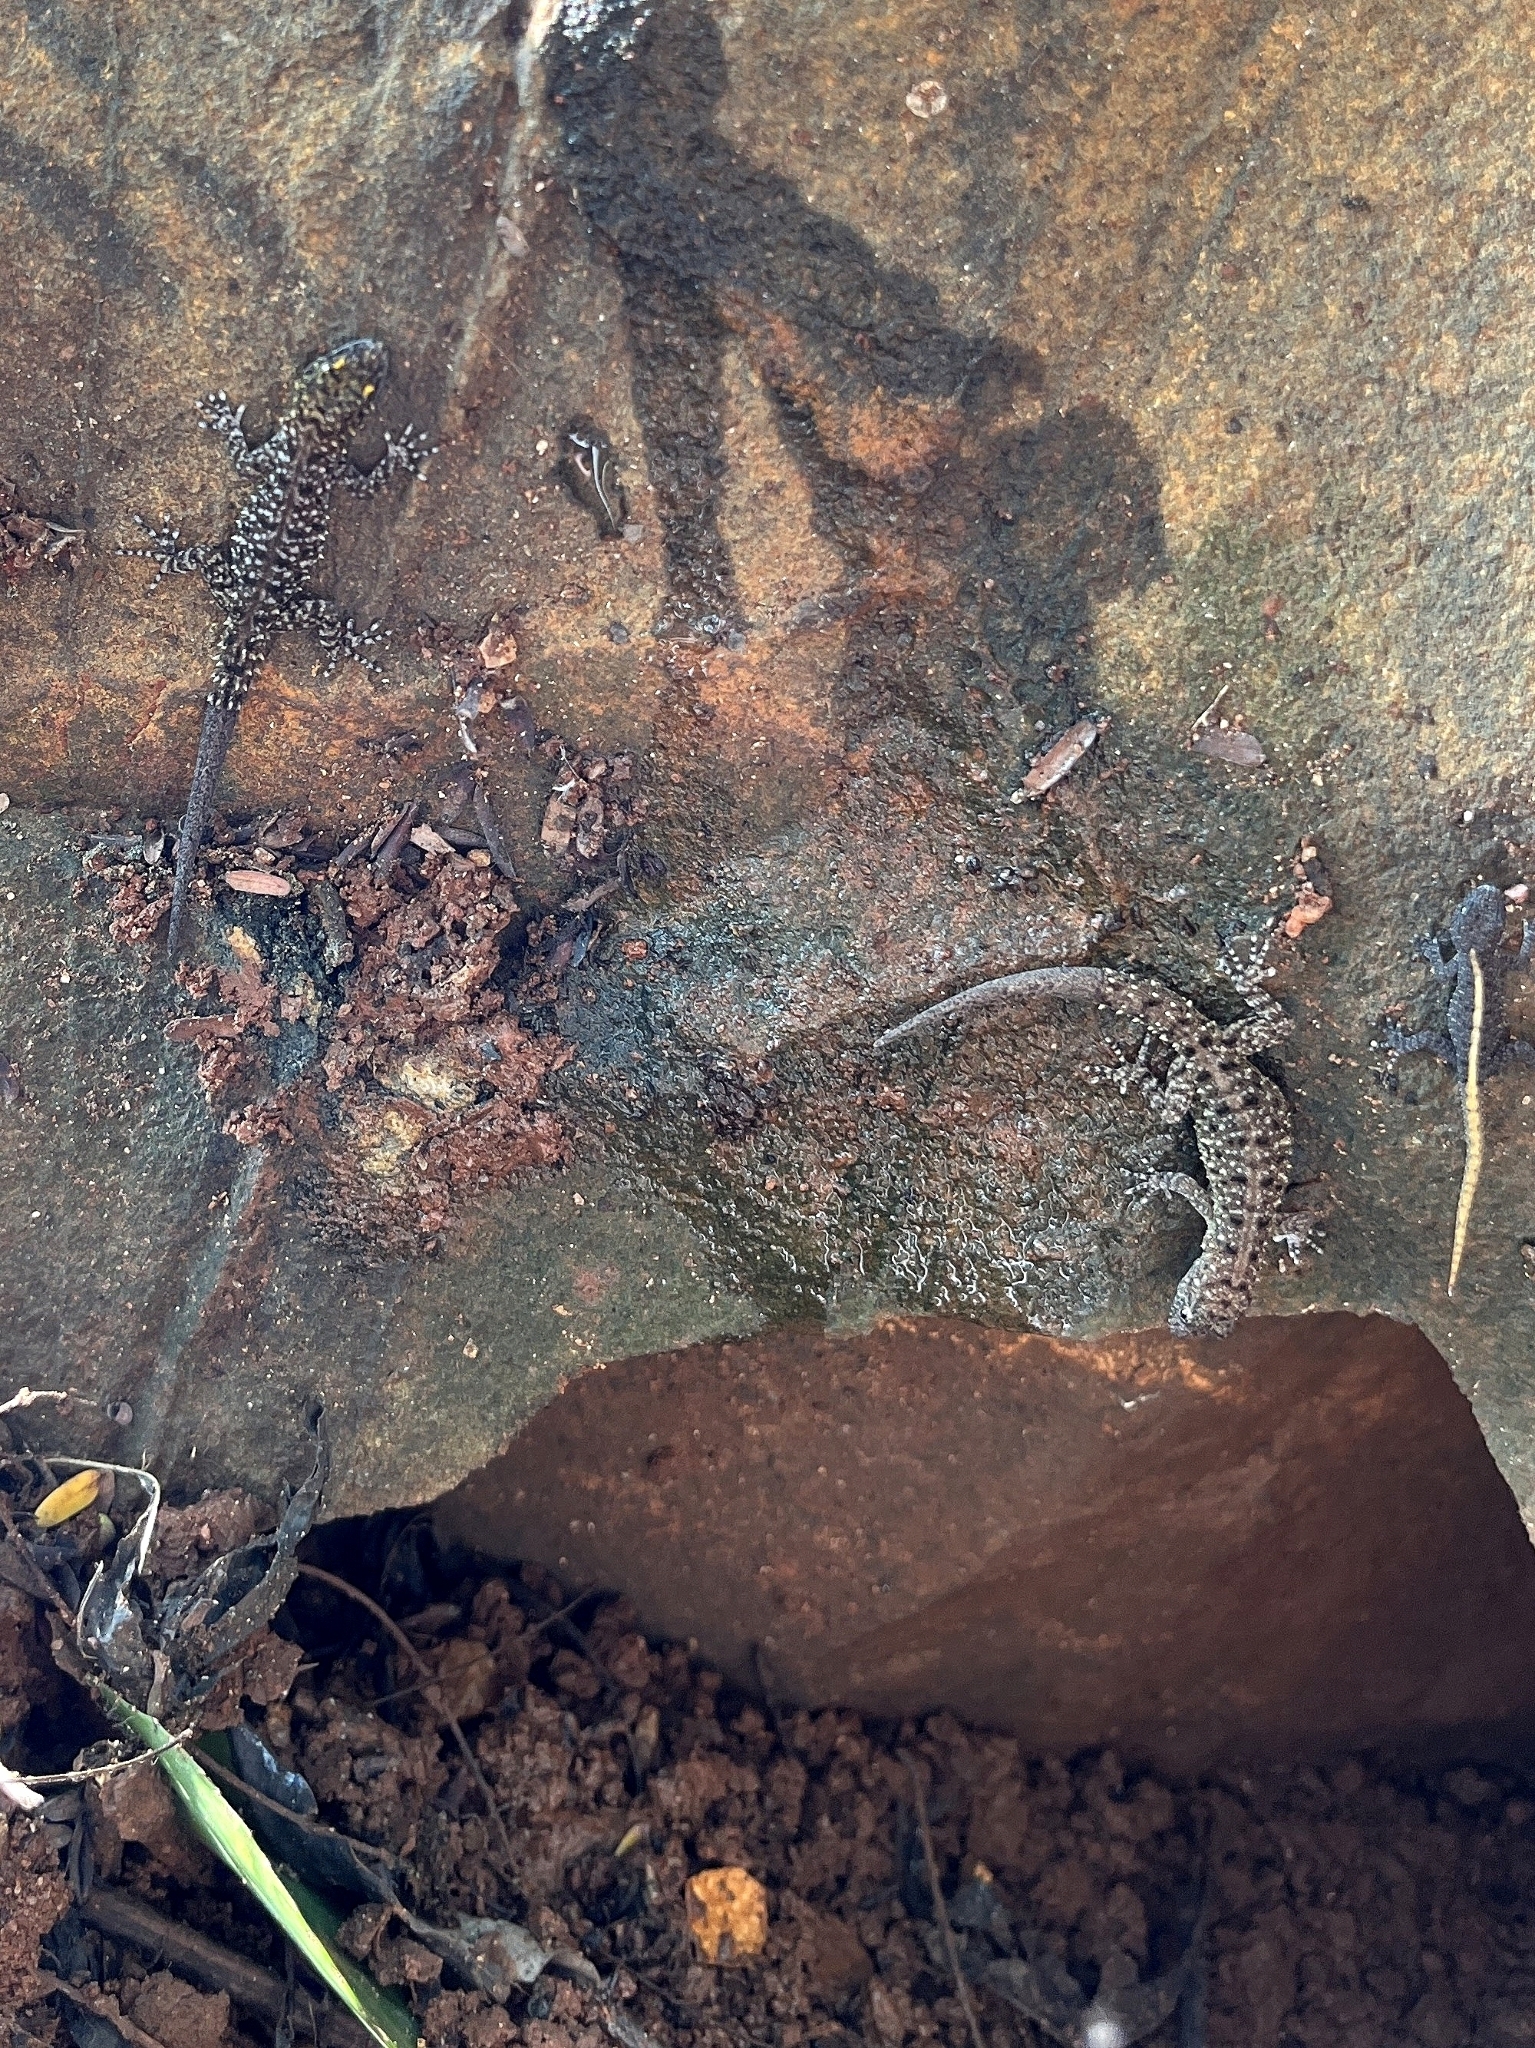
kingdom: Animalia
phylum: Chordata
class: Squamata
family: Gekkonidae
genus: Cnemaspis
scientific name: Cnemaspis mysoriensis
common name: Mysore day gecko
